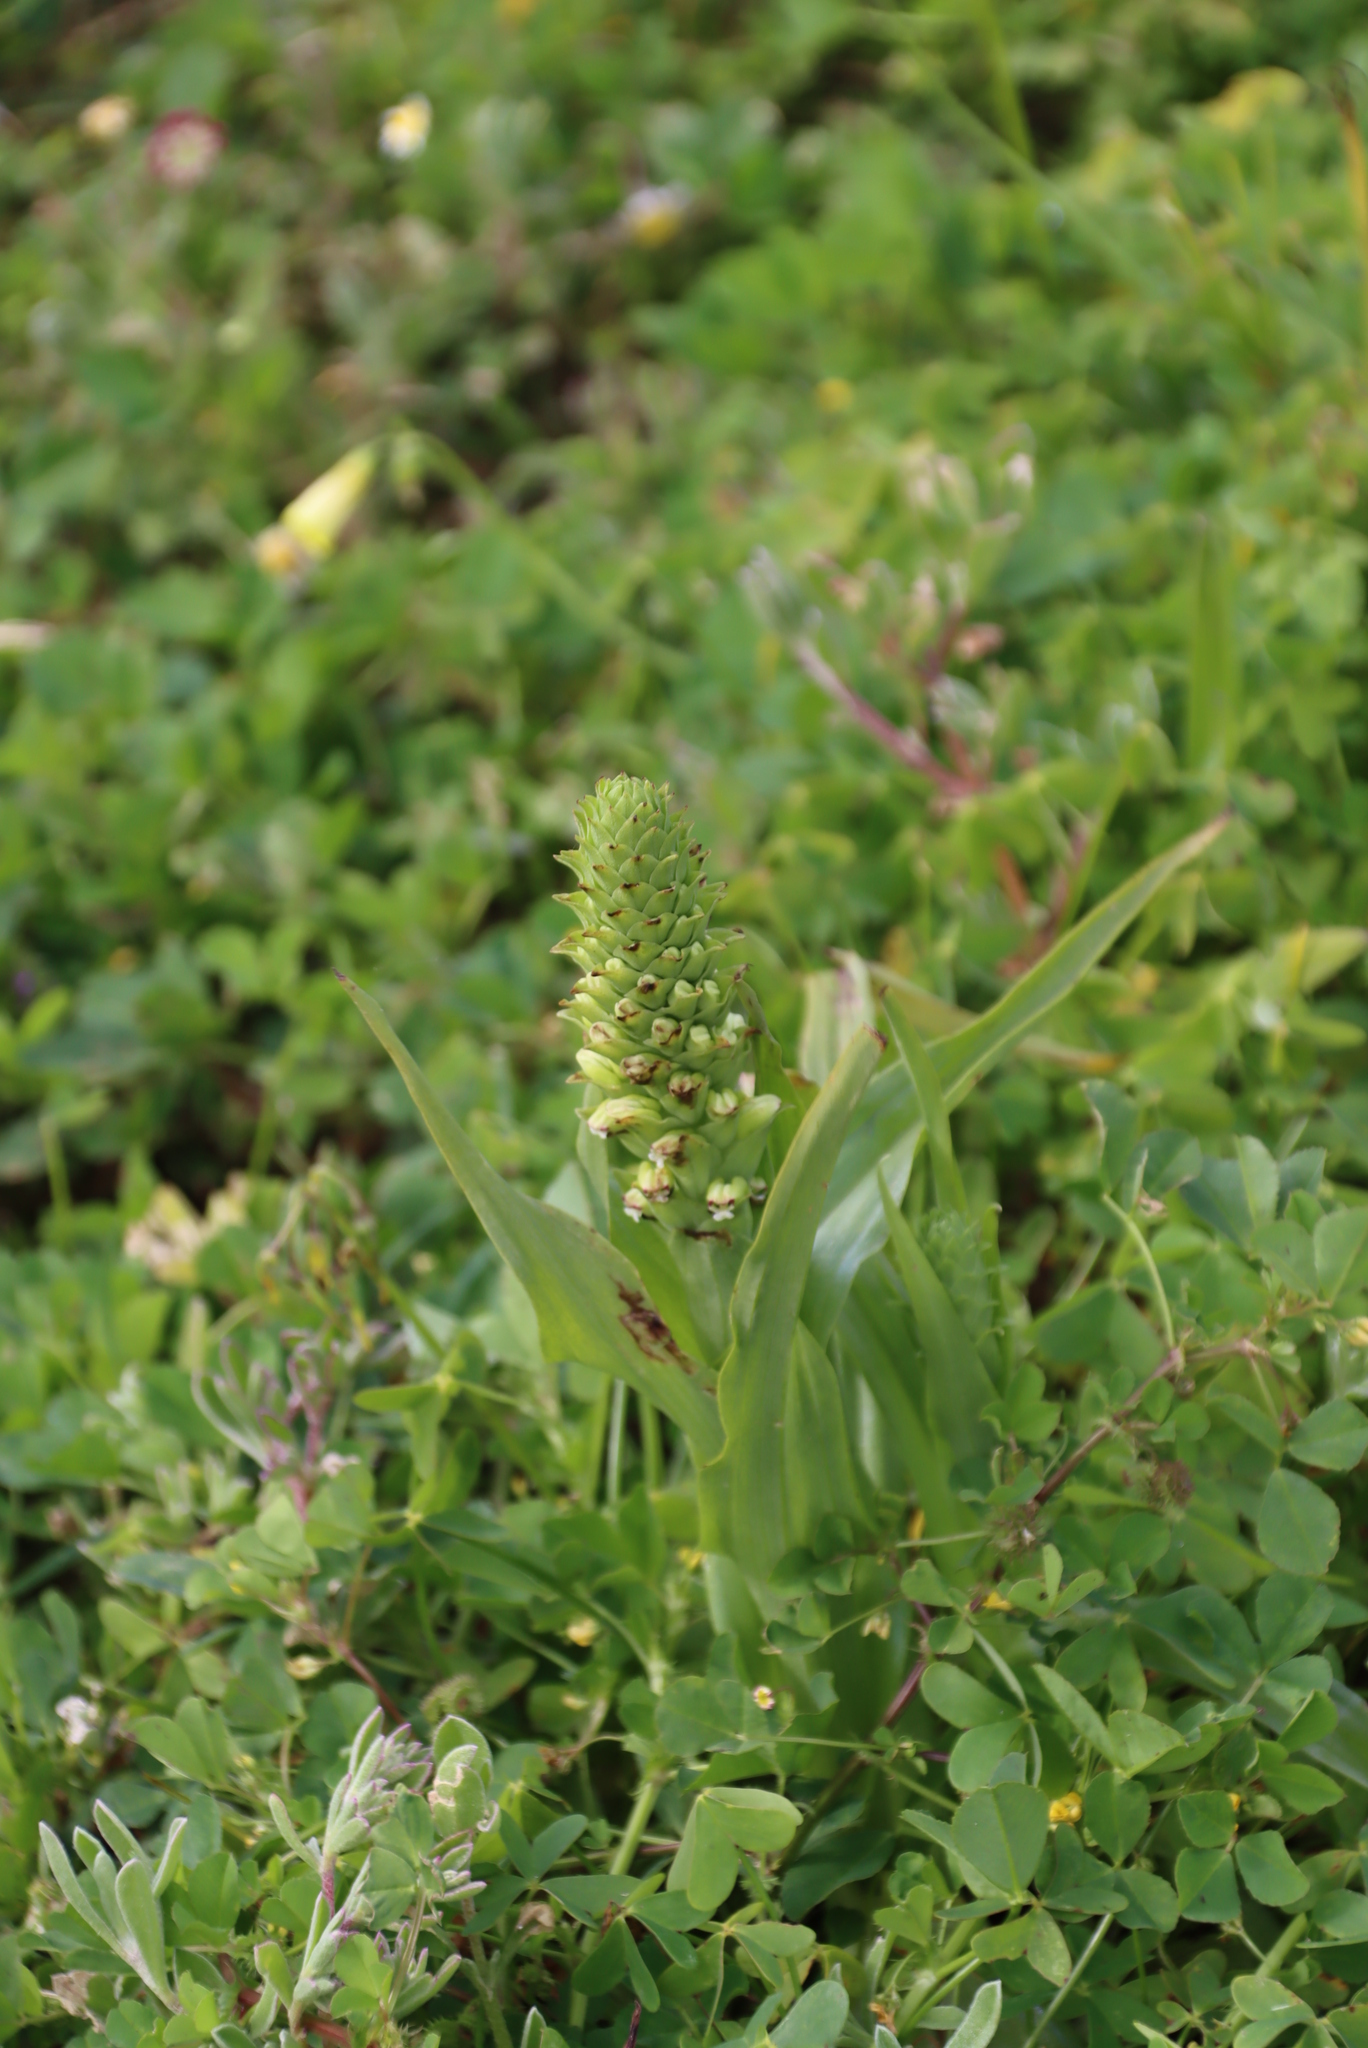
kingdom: Plantae
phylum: Tracheophyta
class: Liliopsida
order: Asparagales
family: Orchidaceae
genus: Corycium
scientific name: Corycium orobanchoides
